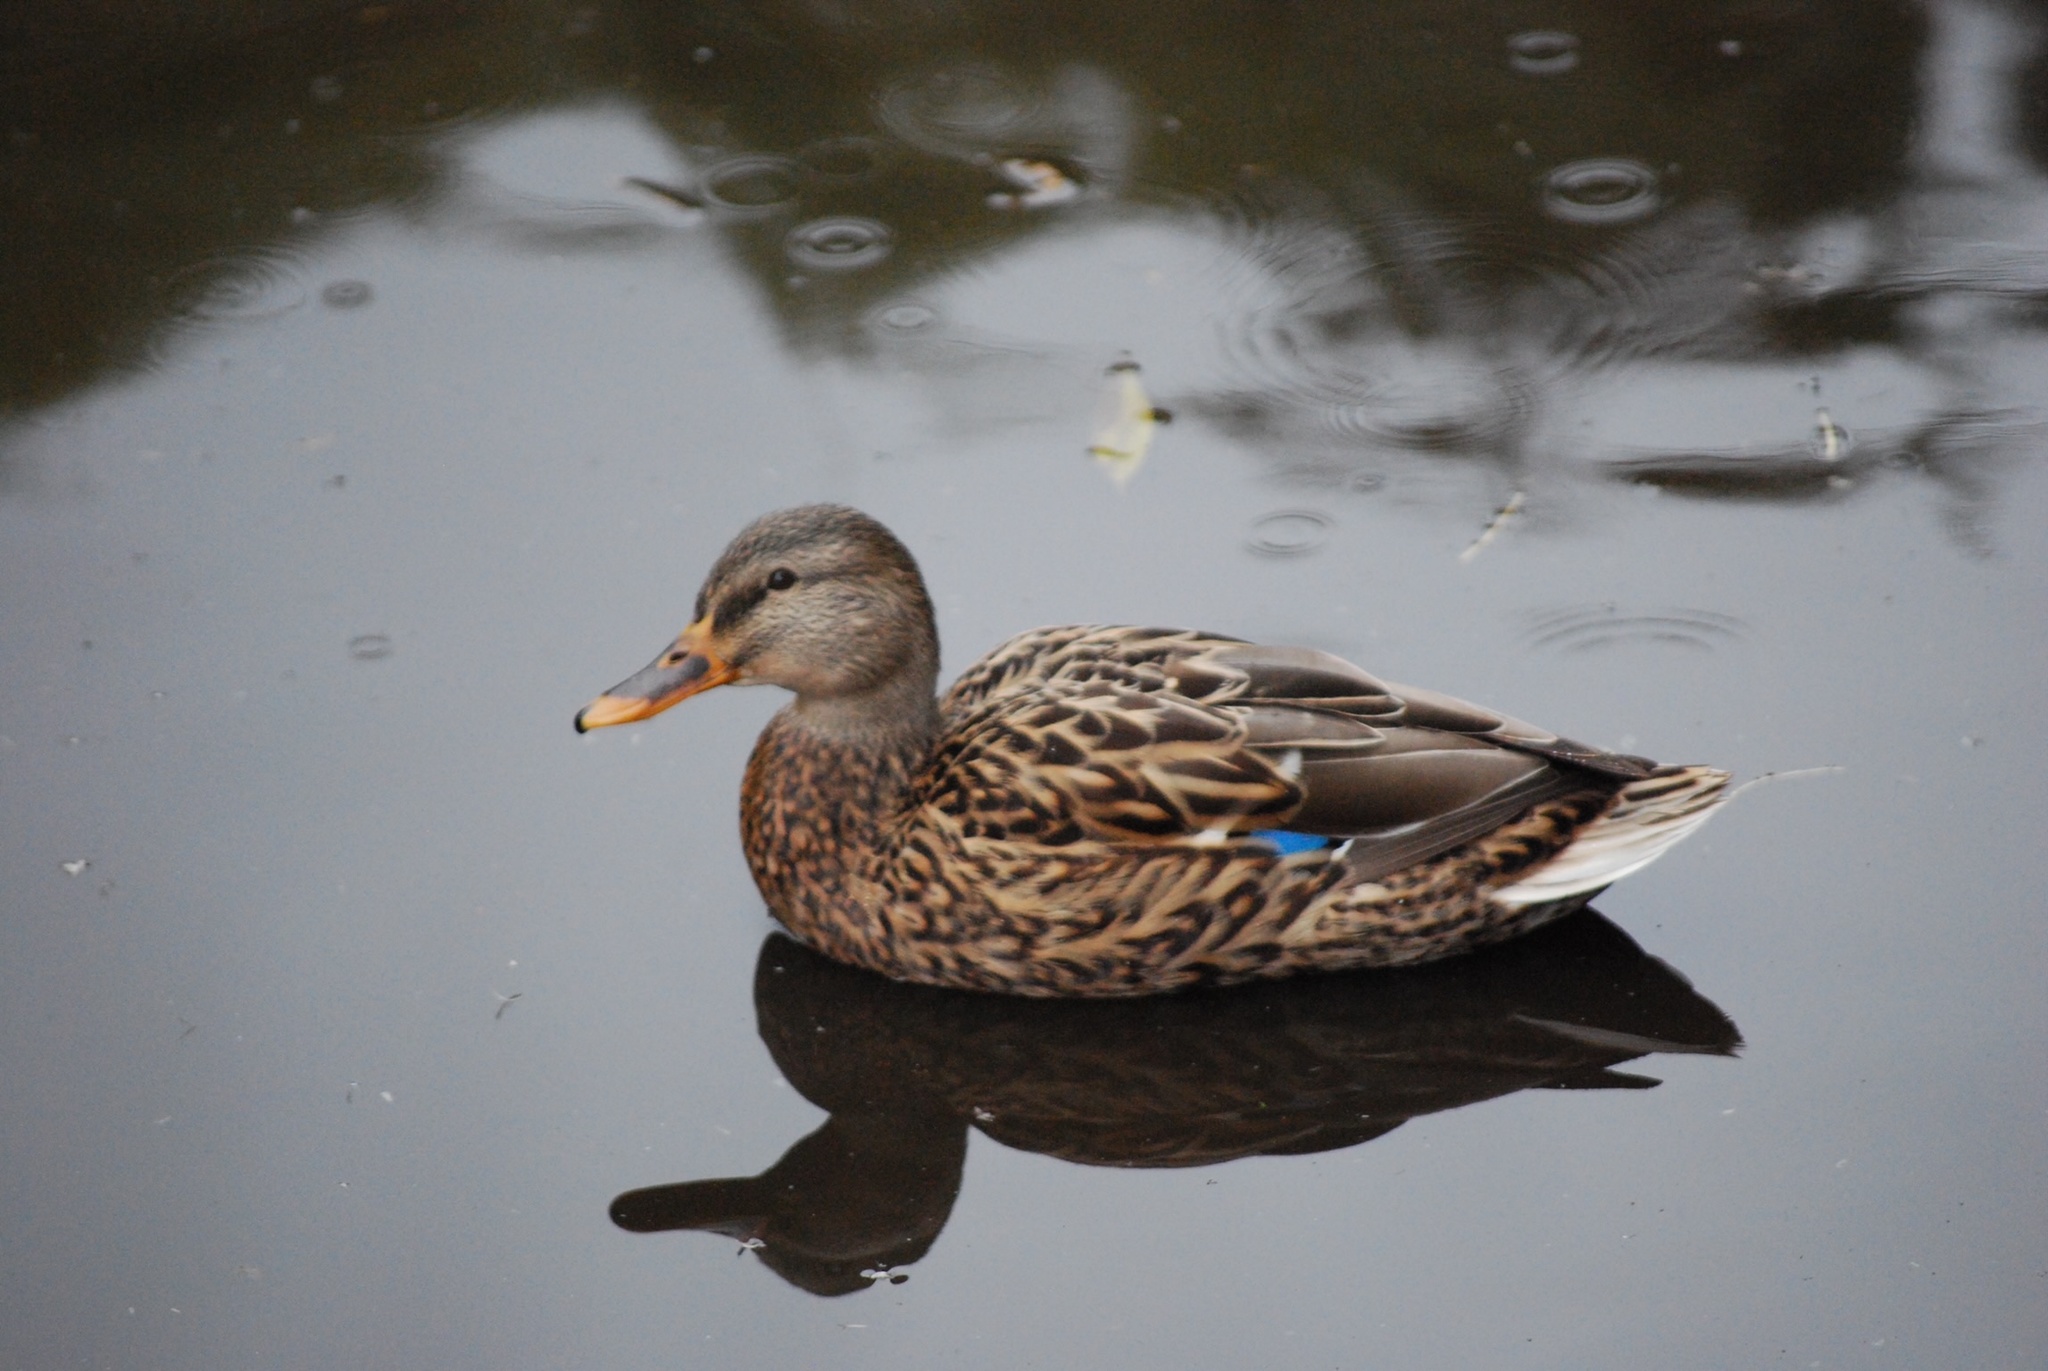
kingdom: Animalia
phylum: Chordata
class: Aves
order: Anseriformes
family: Anatidae
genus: Anas
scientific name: Anas platyrhynchos
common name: Mallard
